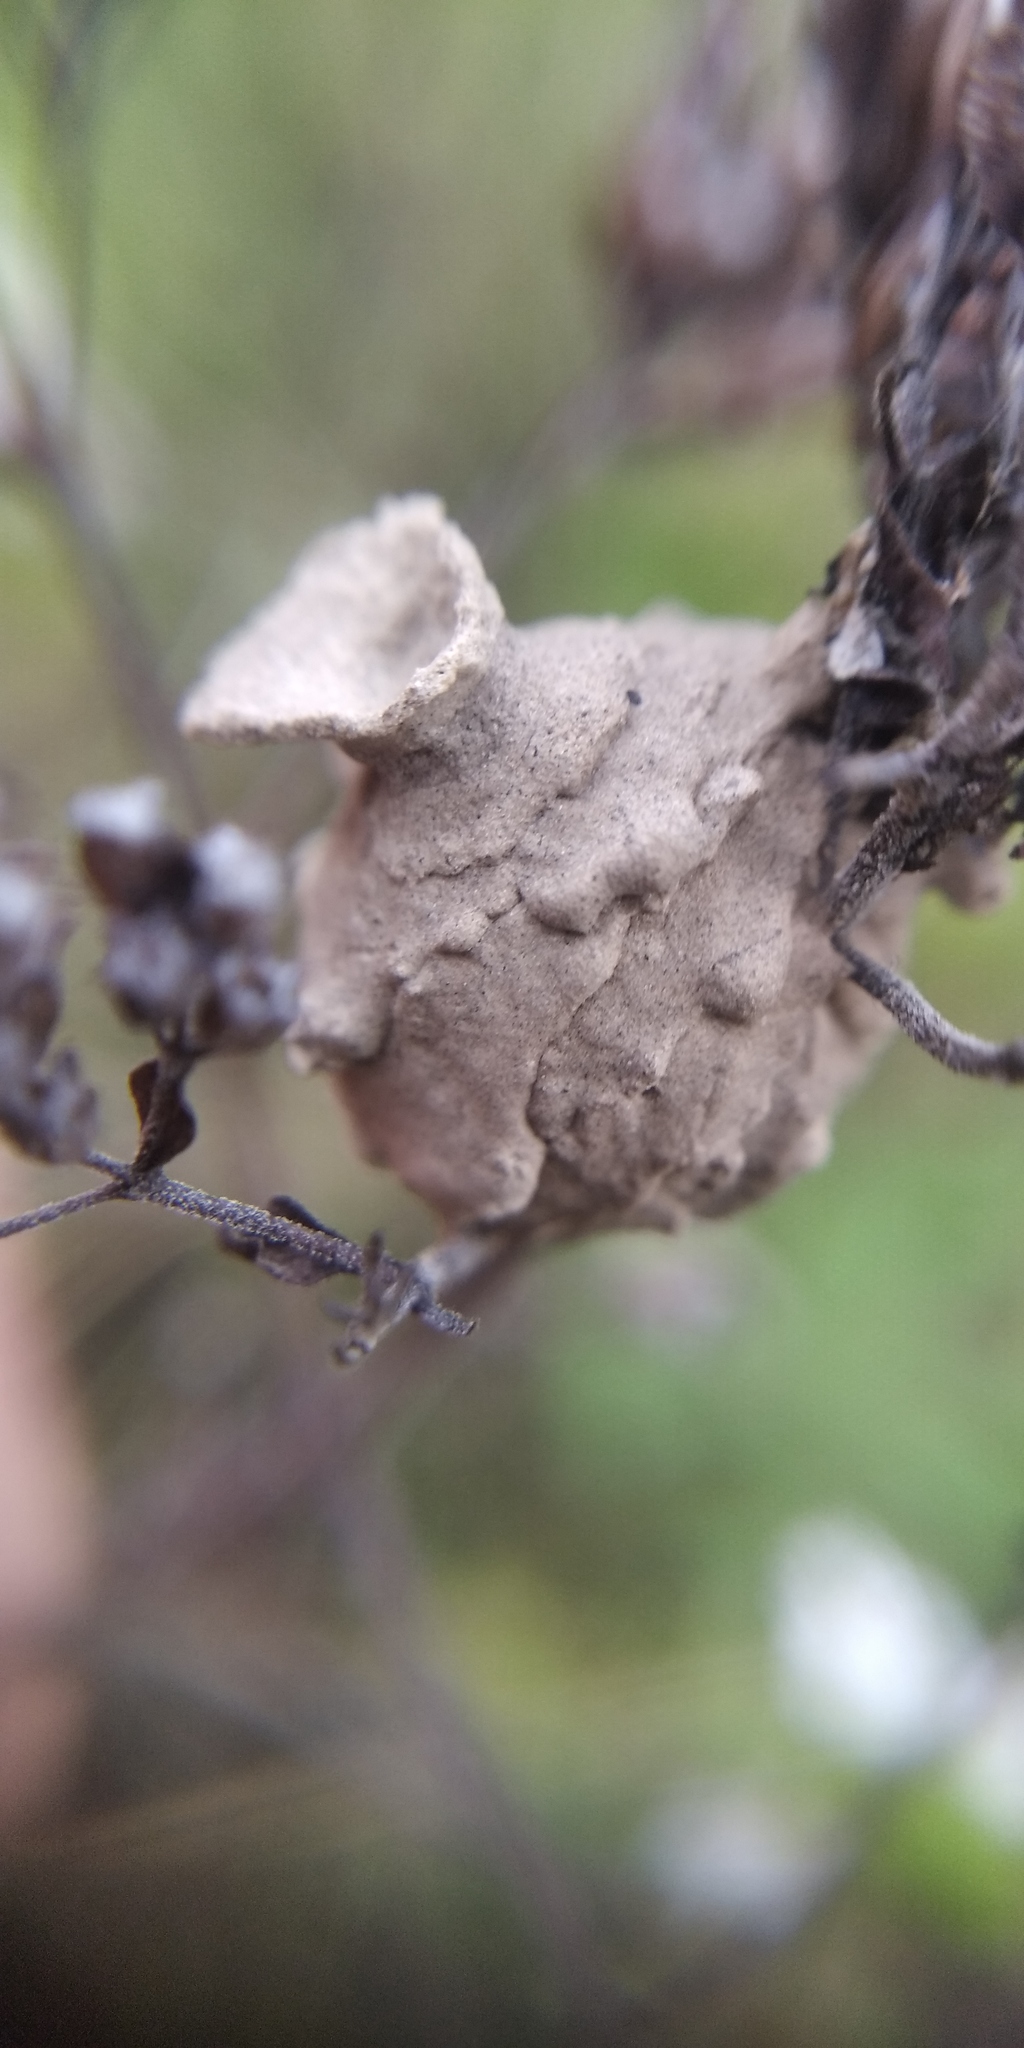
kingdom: Animalia
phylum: Arthropoda
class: Insecta
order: Hymenoptera
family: Eumenidae
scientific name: Eumenidae
